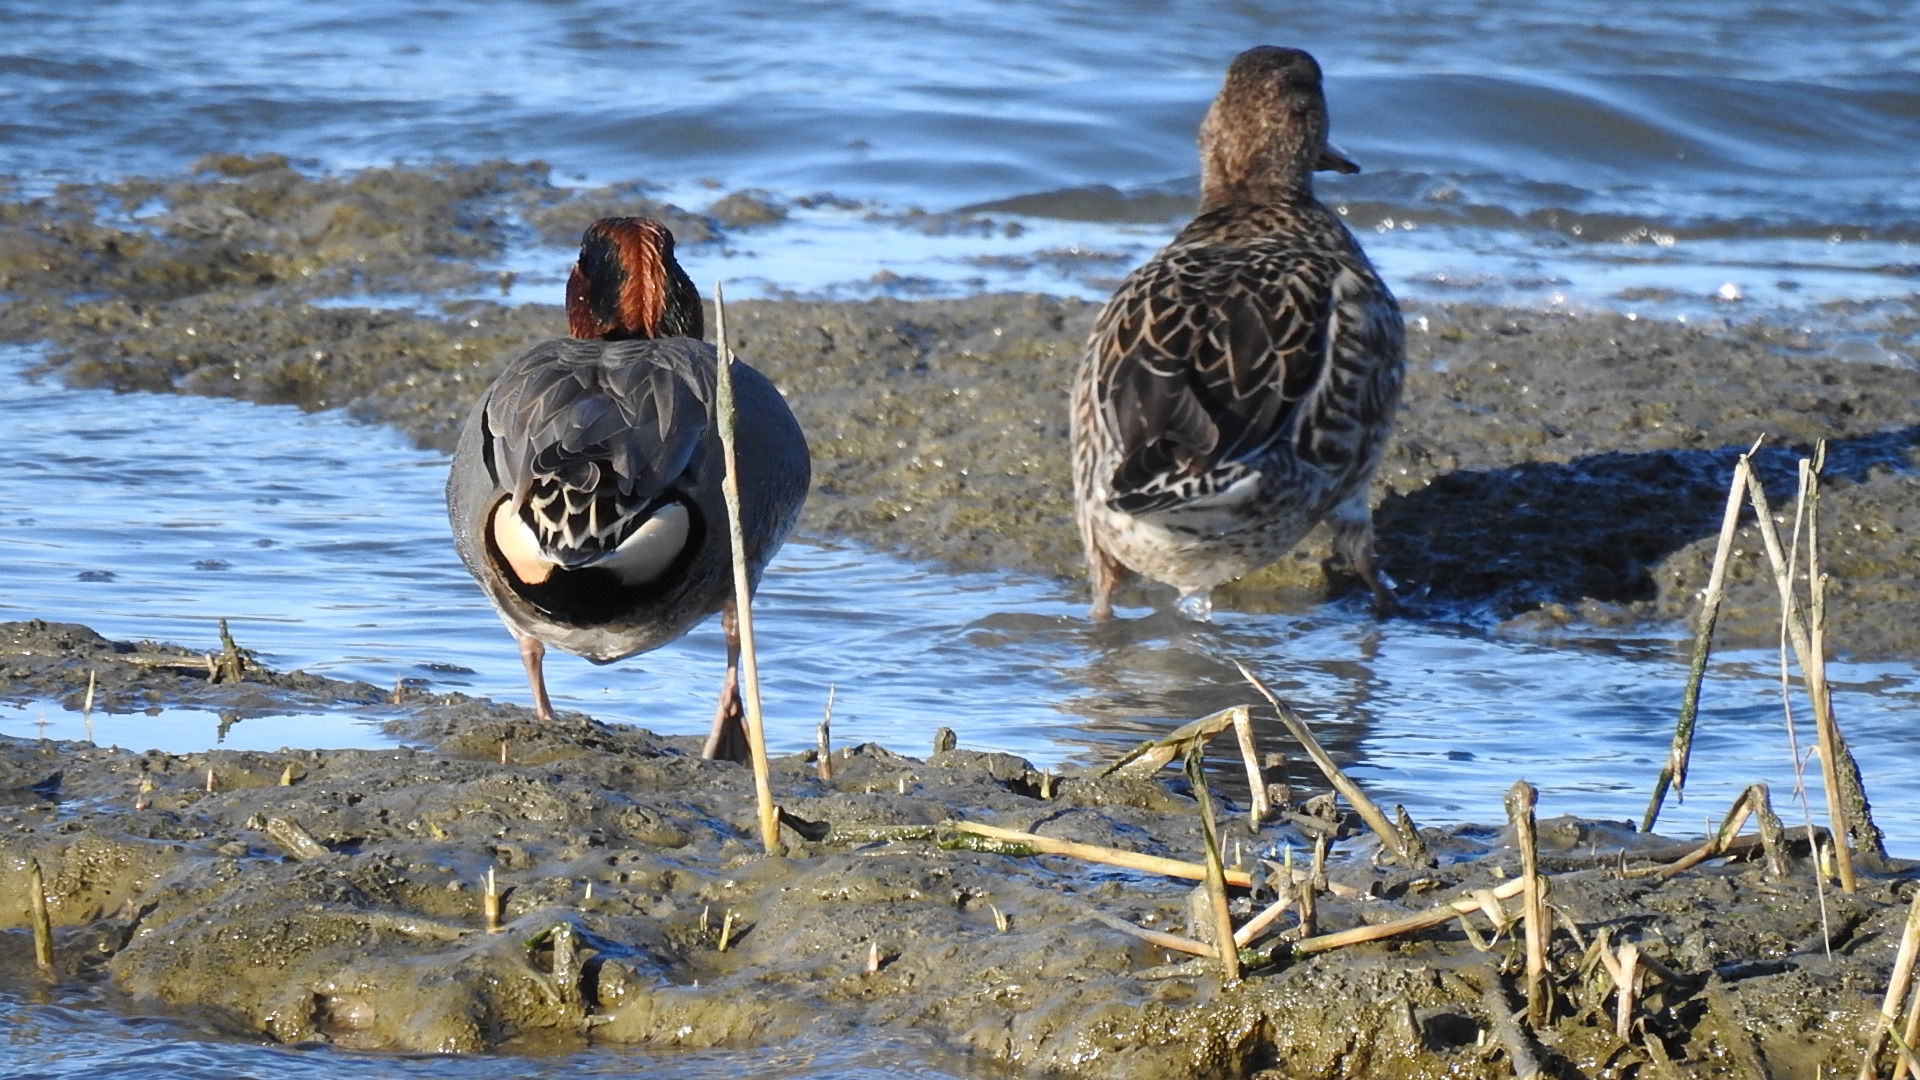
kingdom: Animalia
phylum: Chordata
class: Aves
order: Anseriformes
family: Anatidae
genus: Anas
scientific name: Anas crecca
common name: Eurasian teal
